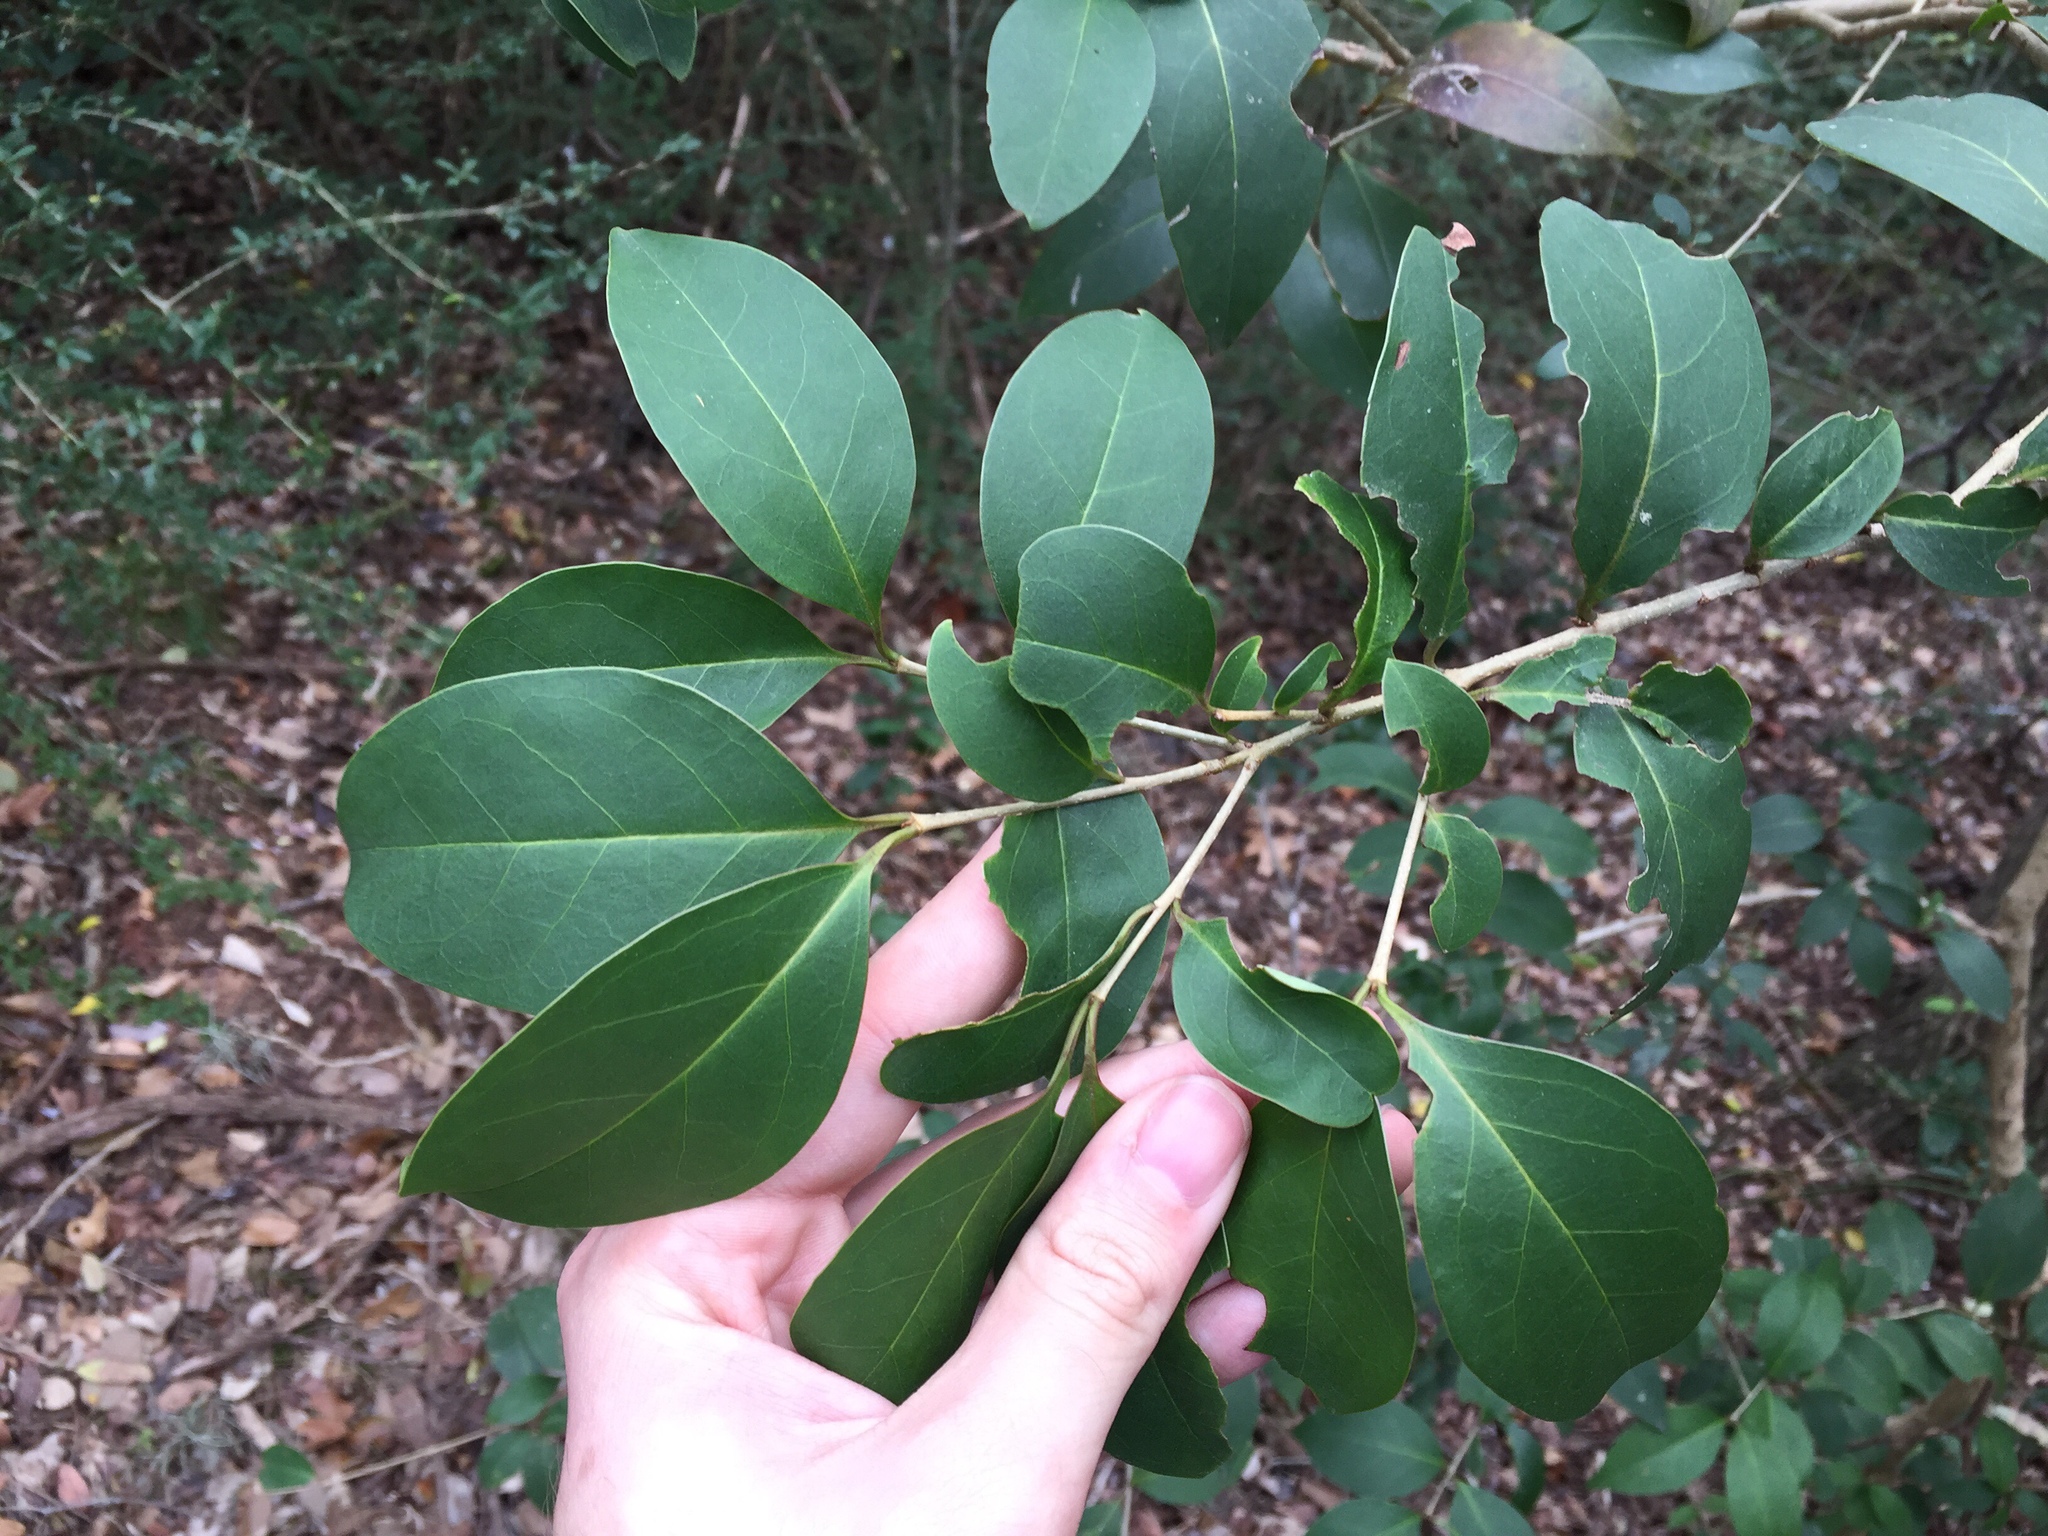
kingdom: Plantae
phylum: Tracheophyta
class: Magnoliopsida
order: Lamiales
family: Oleaceae
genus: Ligustrum
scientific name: Ligustrum lucidum
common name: Glossy privet
